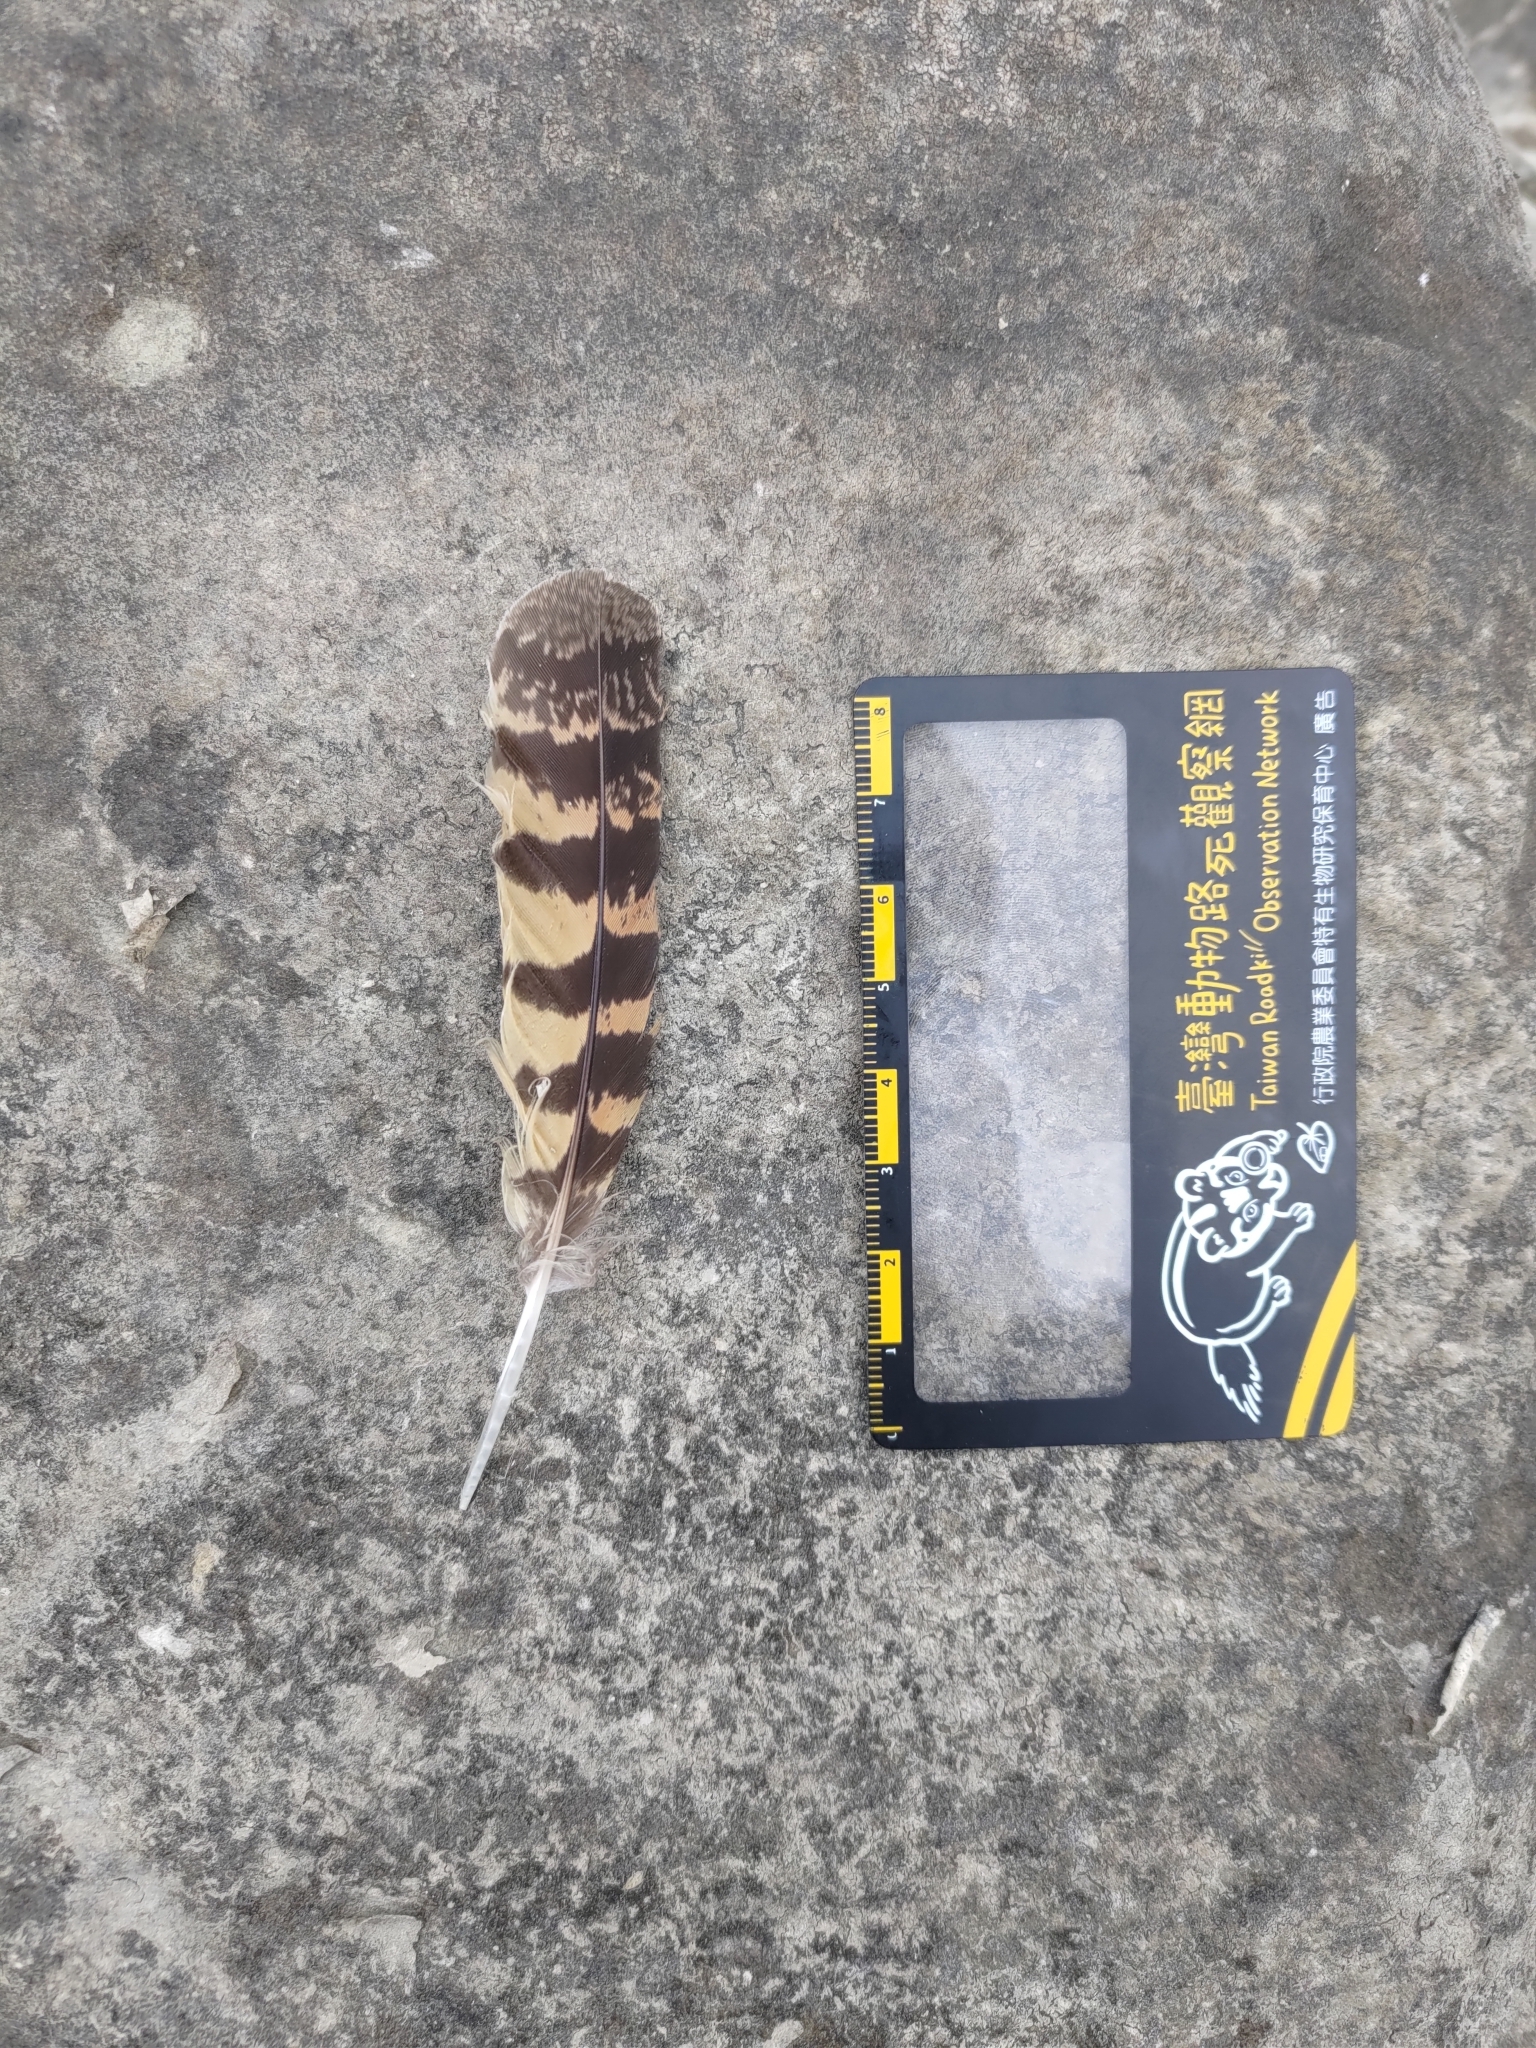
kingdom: Animalia
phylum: Chordata
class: Aves
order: Caprimulgiformes
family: Caprimulgidae
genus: Caprimulgus
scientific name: Caprimulgus affinis
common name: Savanna nightjar
